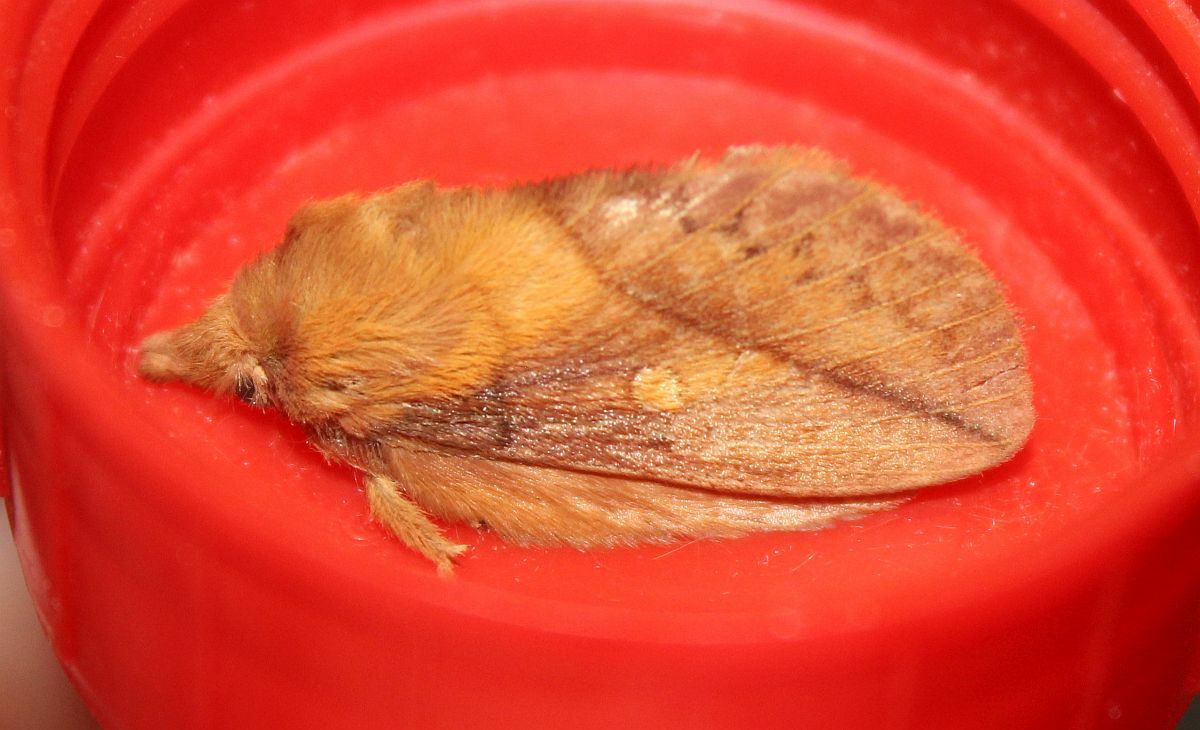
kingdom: Animalia
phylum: Arthropoda
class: Insecta
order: Lepidoptera
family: Lasiocampidae
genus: Euthrix
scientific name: Euthrix potatoria
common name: Drinker
